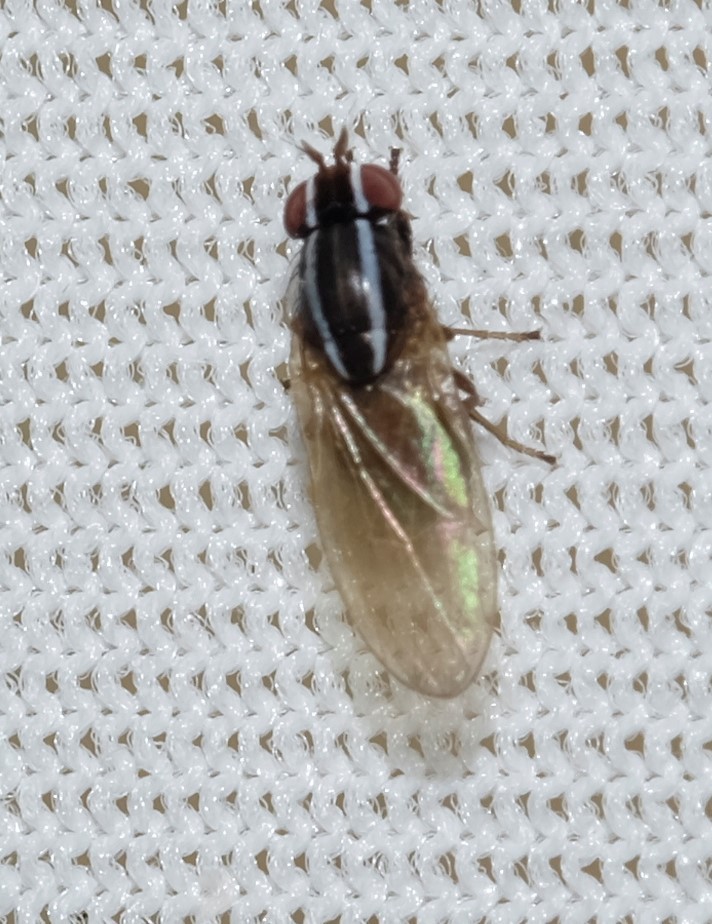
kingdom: Animalia
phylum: Arthropoda
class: Insecta
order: Diptera
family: Lauxaniidae
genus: Poecilohetaerus
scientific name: Poecilohetaerus aquilus
